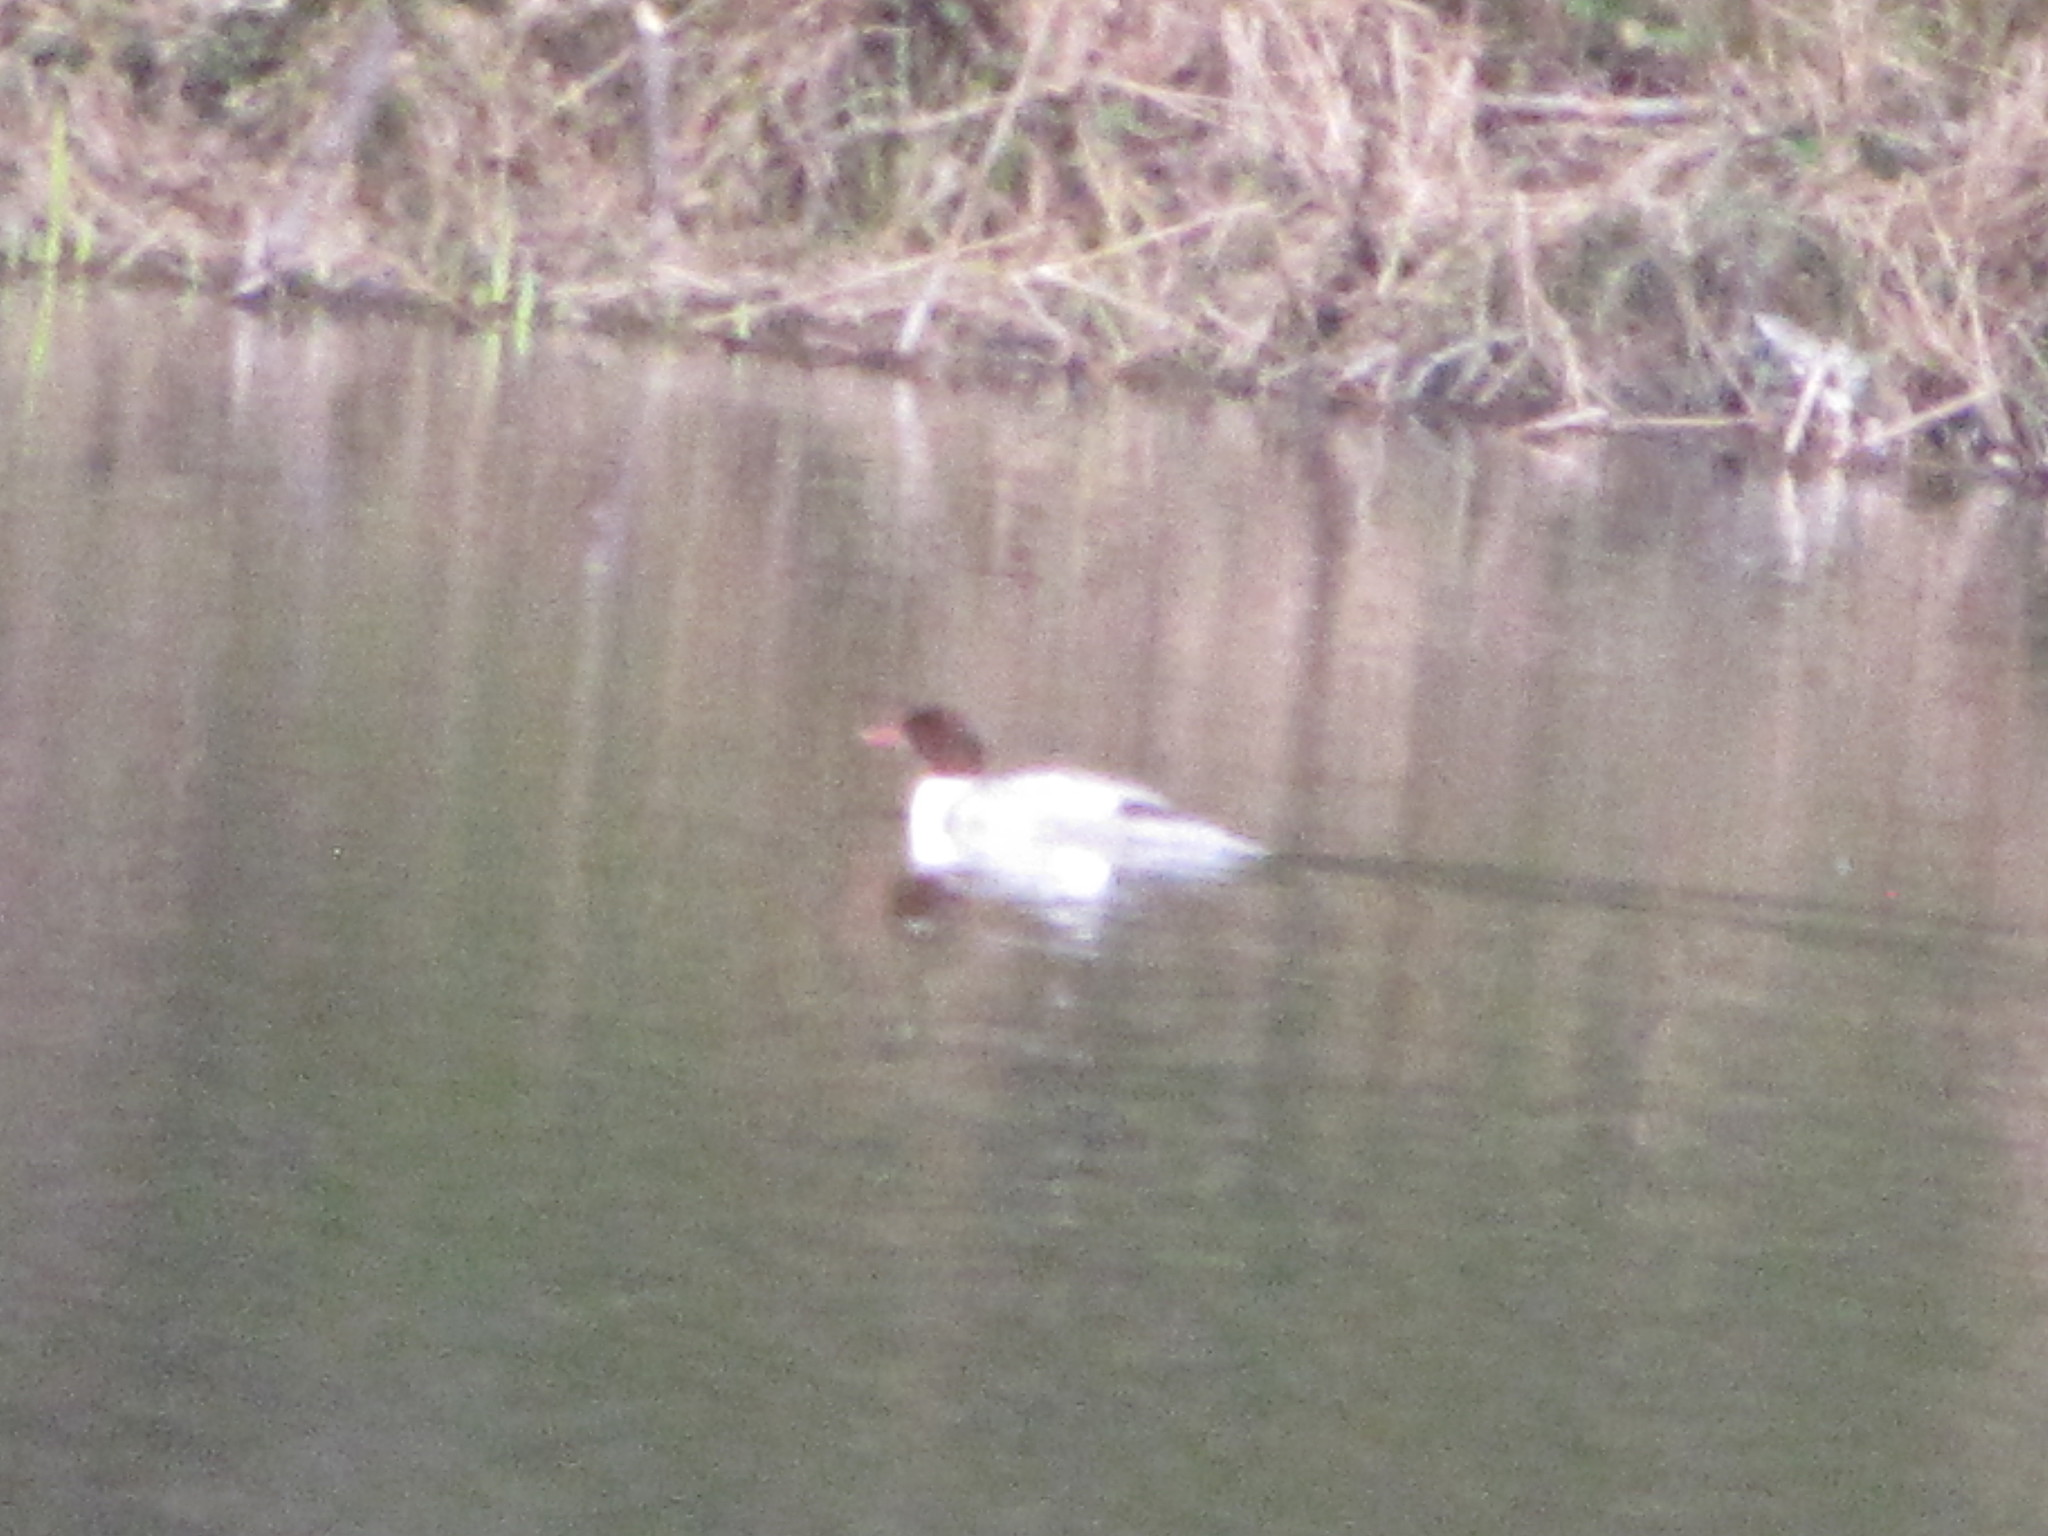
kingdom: Animalia
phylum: Chordata
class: Aves
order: Anseriformes
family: Anatidae
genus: Mergus
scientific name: Mergus merganser
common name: Common merganser
